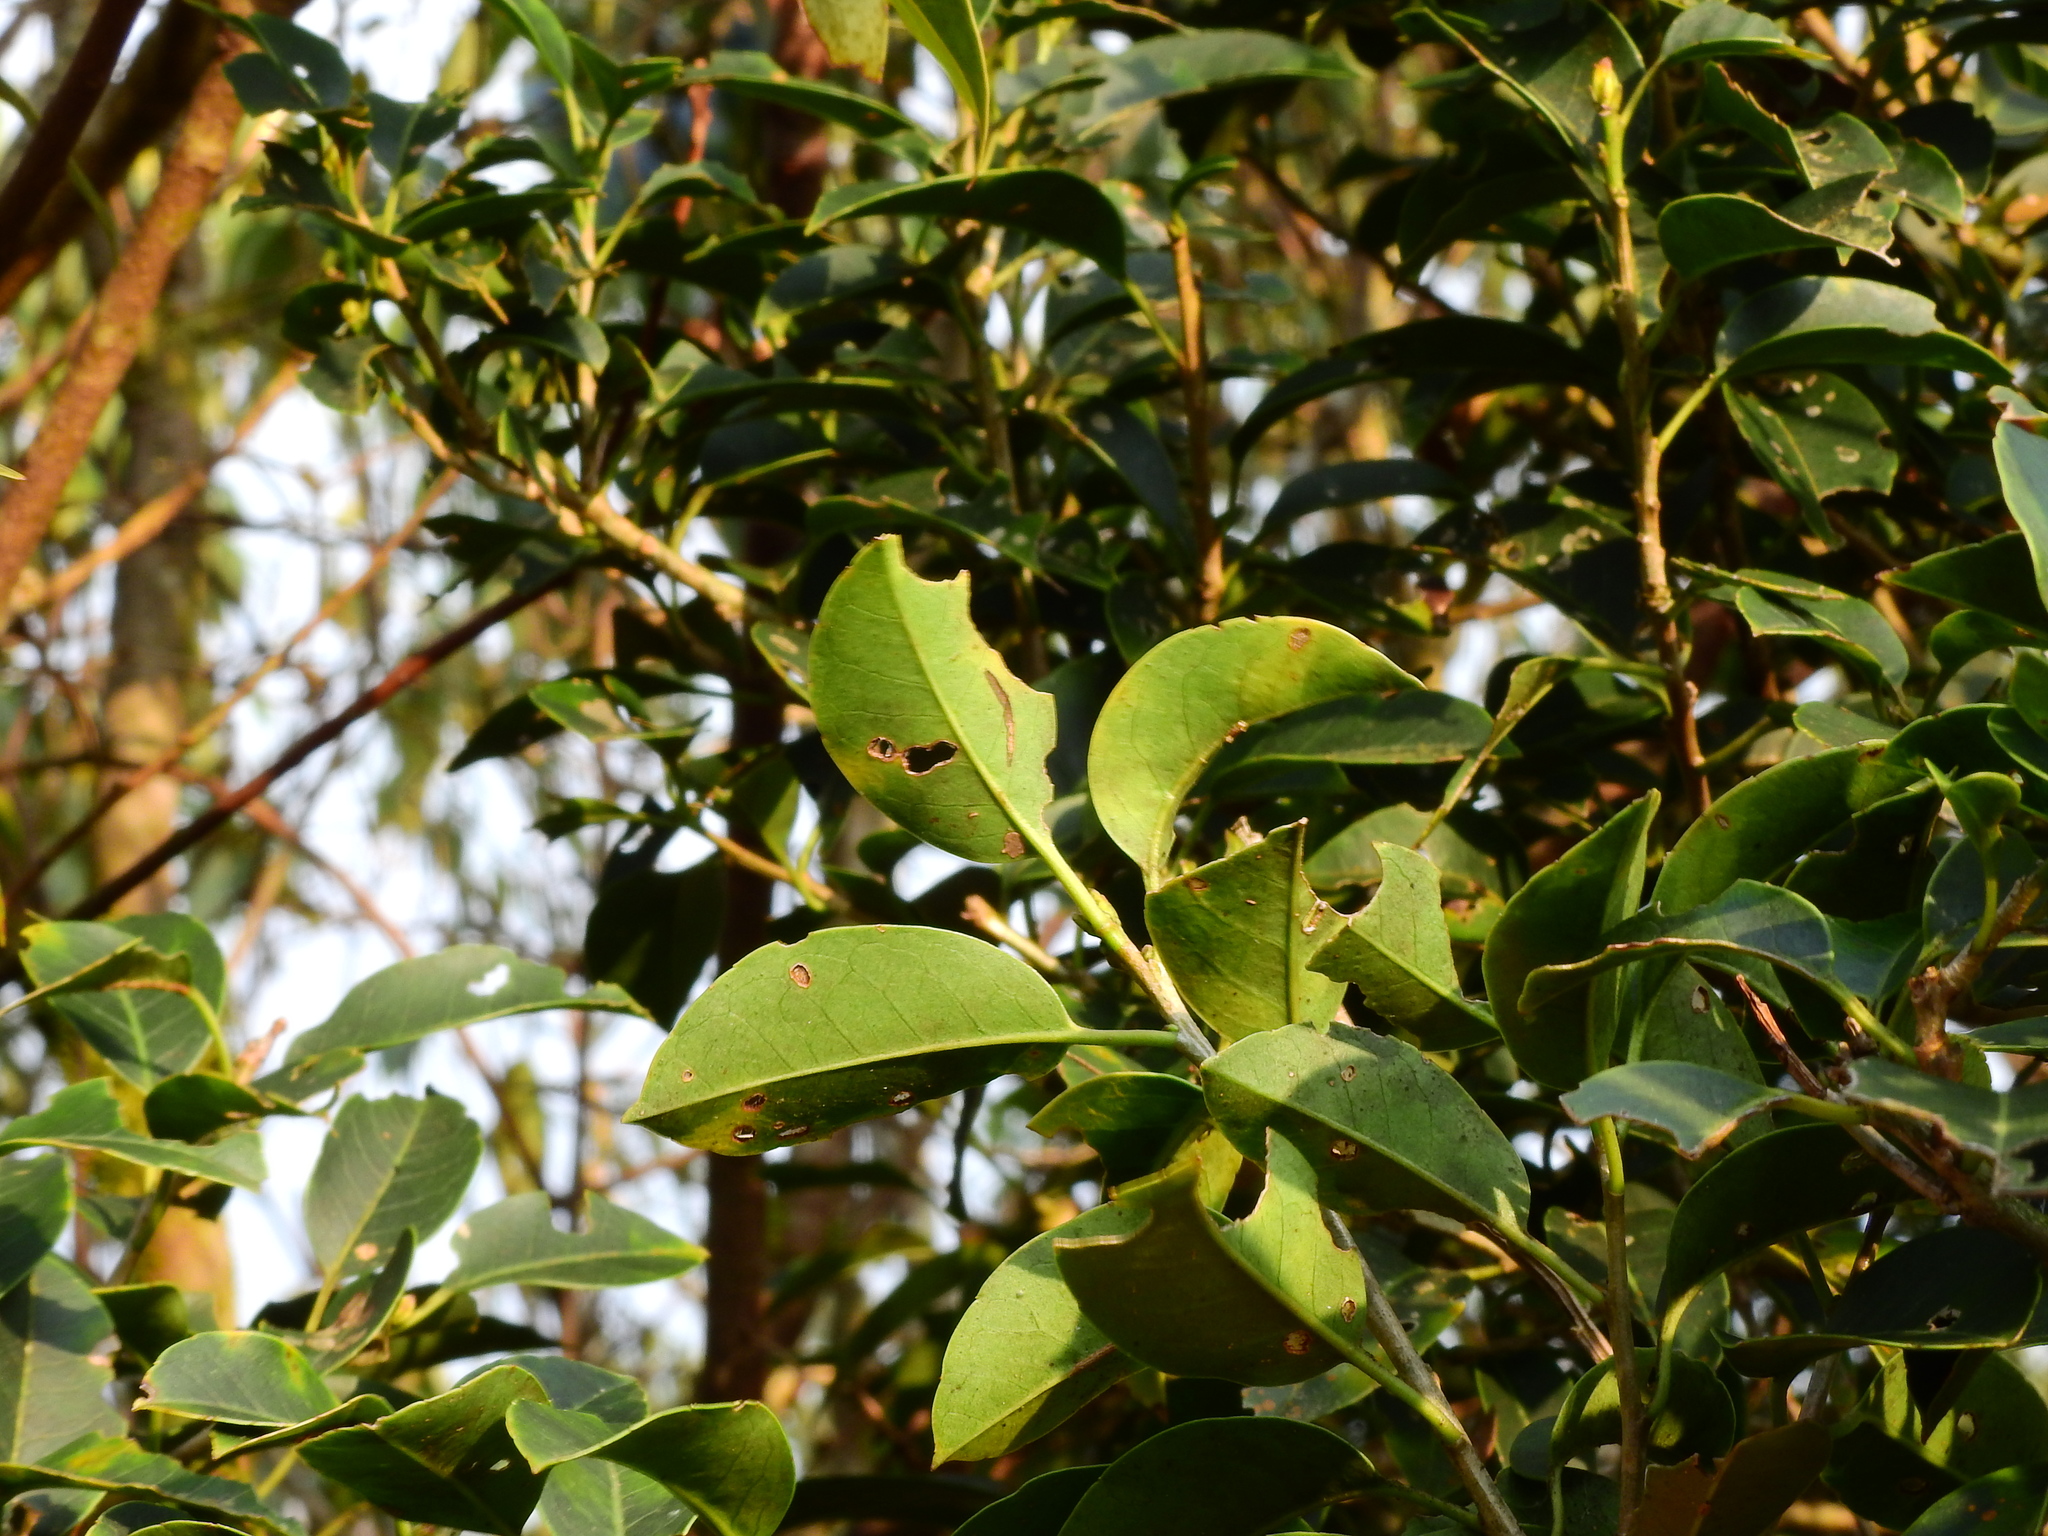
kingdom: Plantae
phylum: Tracheophyta
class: Magnoliopsida
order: Aquifoliales
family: Aquifoliaceae
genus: Ilex
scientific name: Ilex pedunculosa
